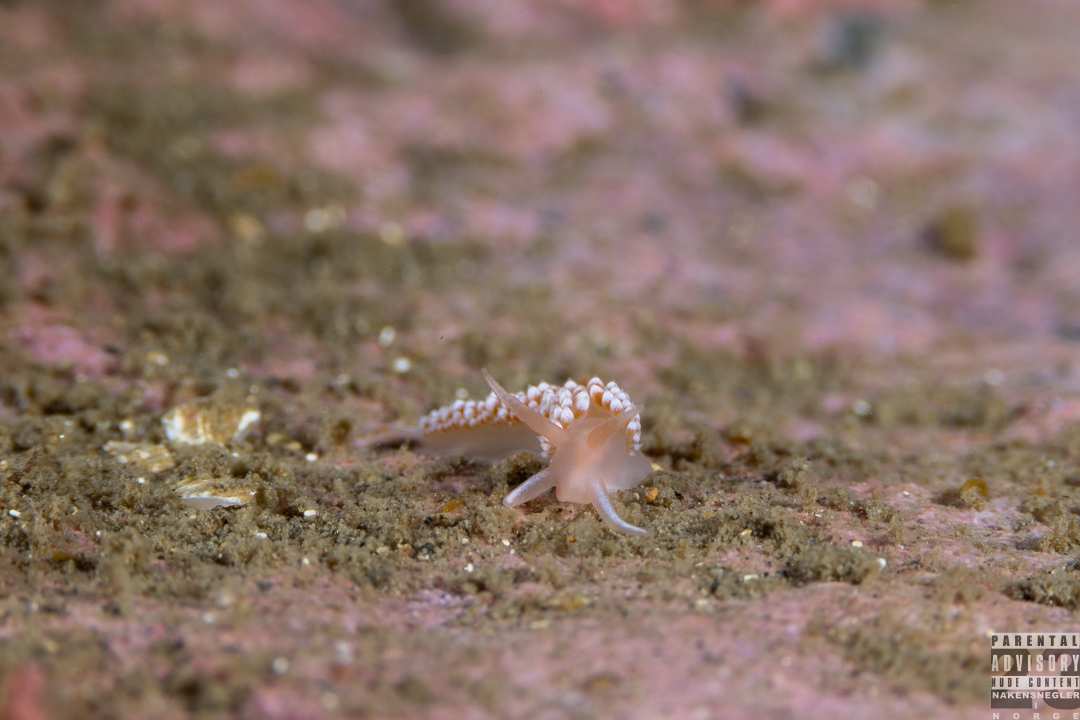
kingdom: Animalia
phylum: Mollusca
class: Gastropoda
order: Nudibranchia
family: Coryphellidae
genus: Coryphella
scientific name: Coryphella verrucosa
